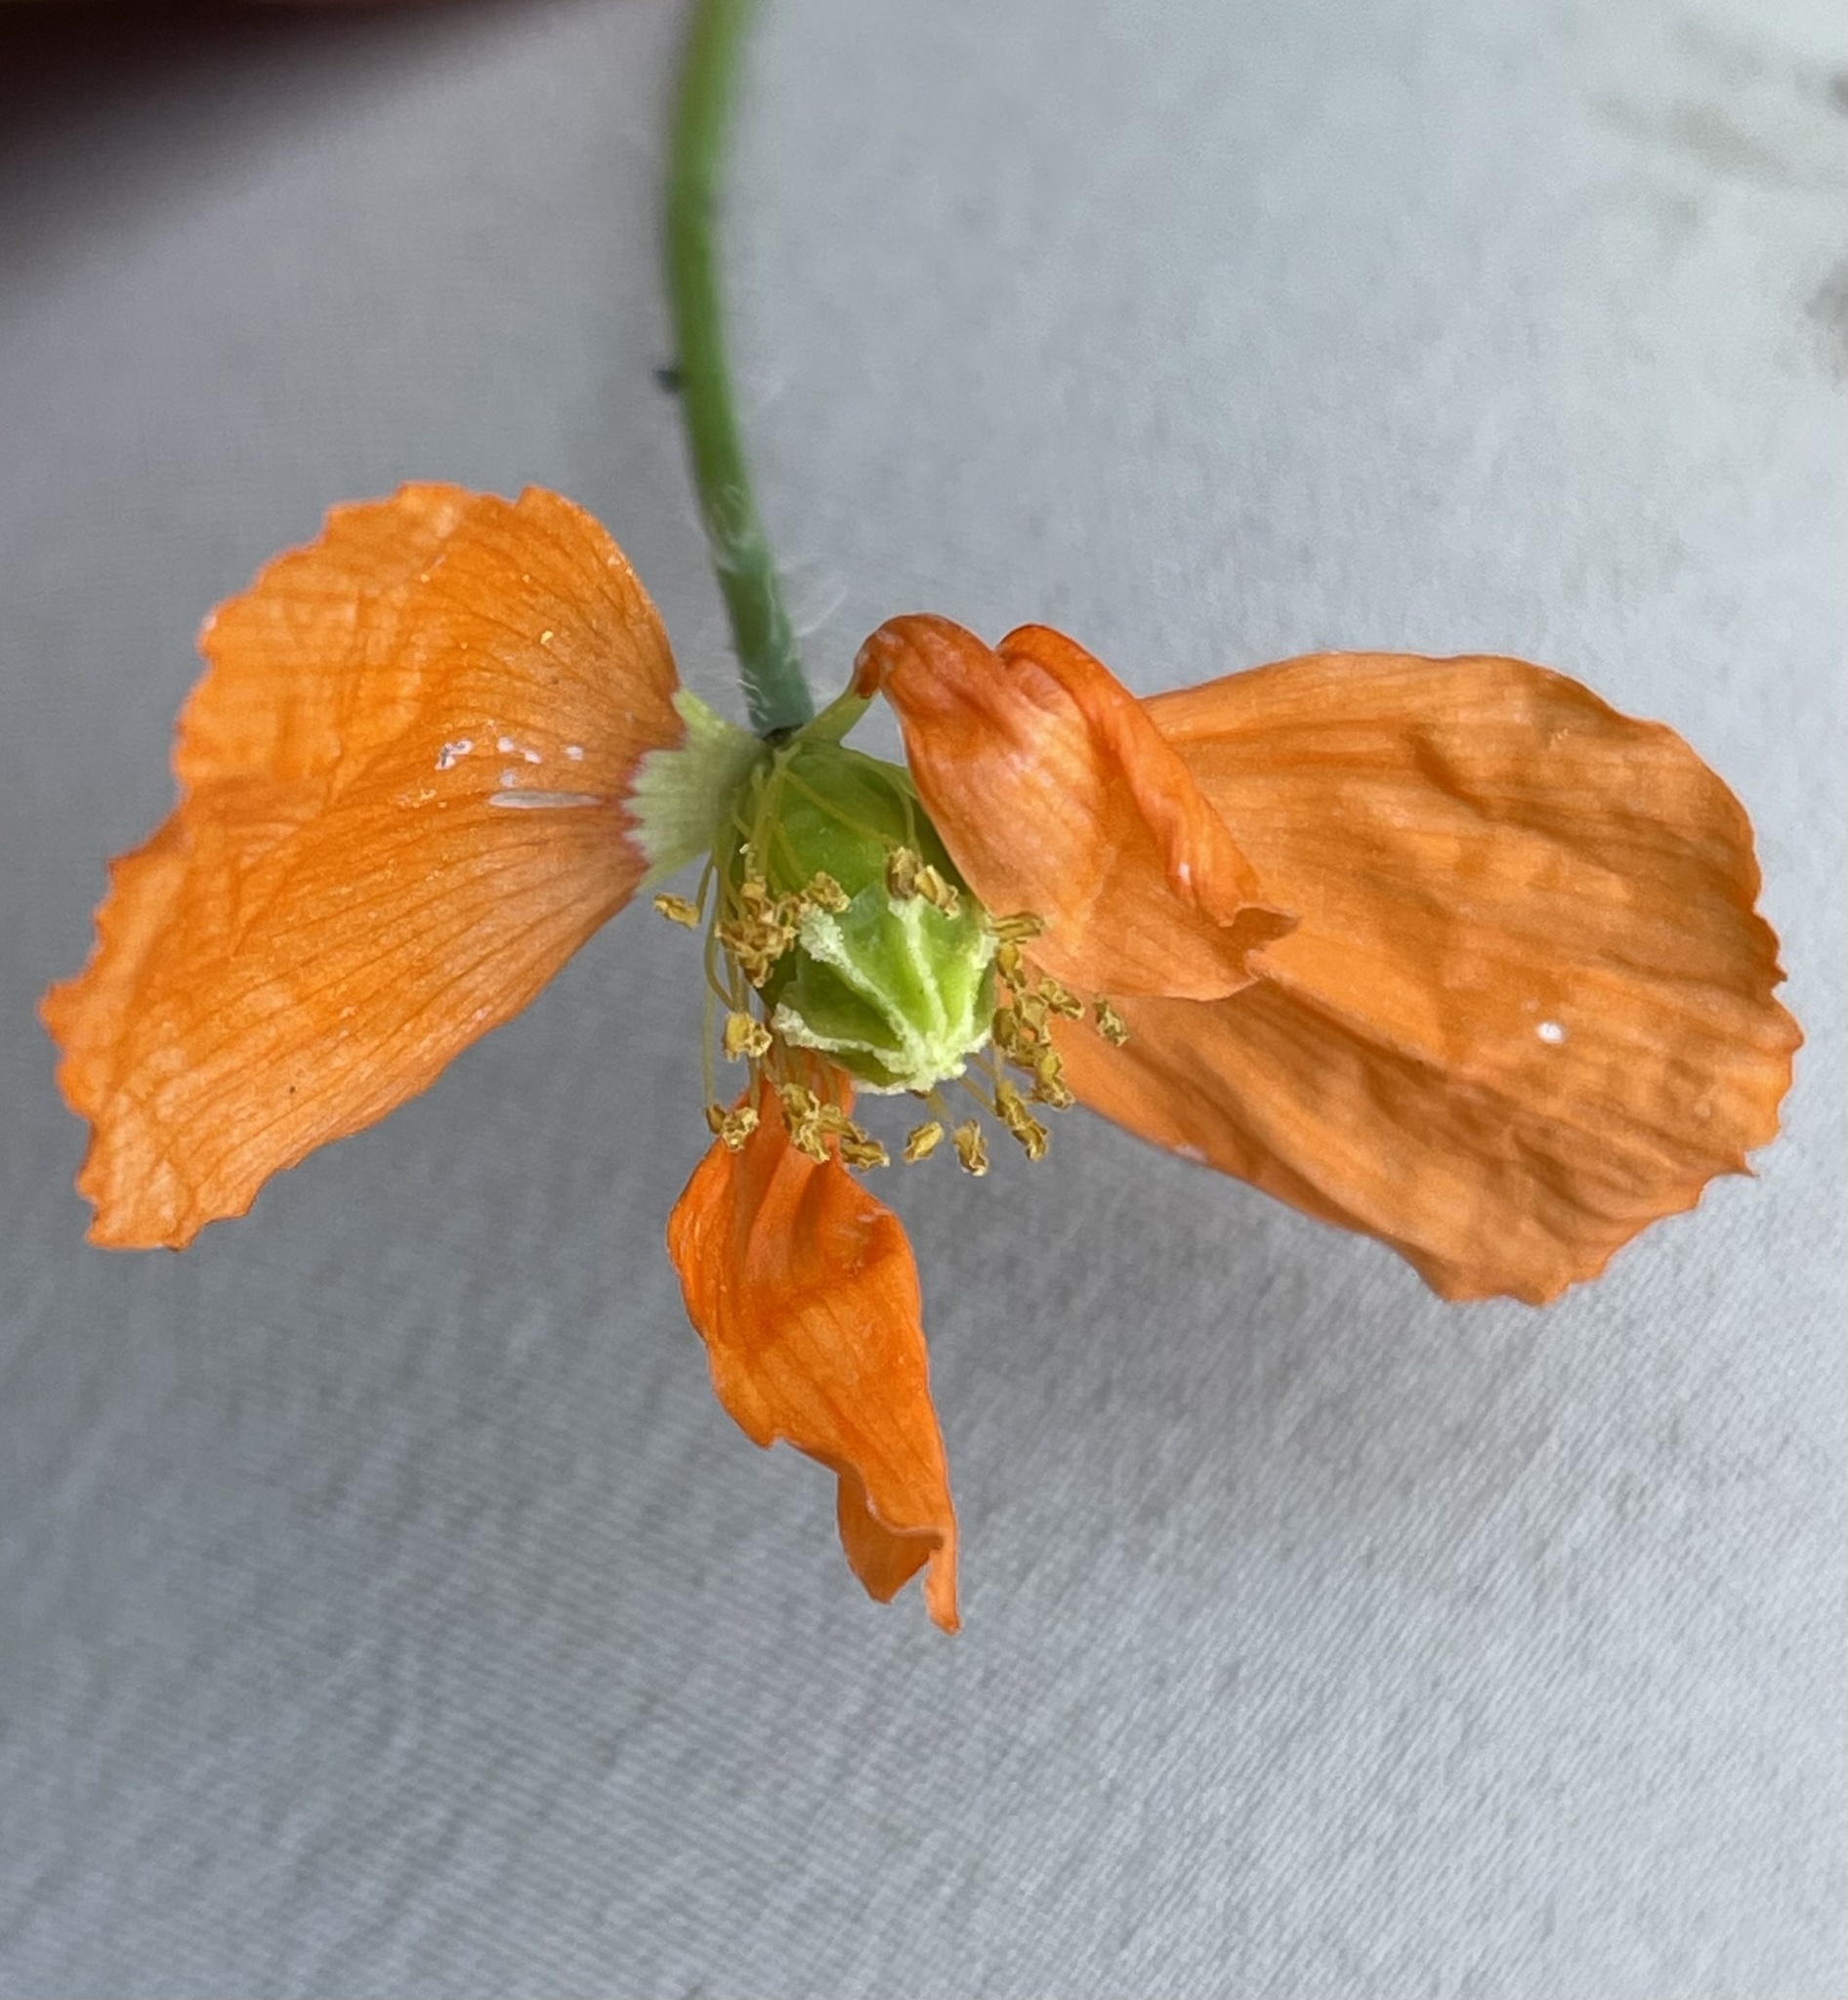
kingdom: Plantae
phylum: Tracheophyta
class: Magnoliopsida
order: Ranunculales
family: Papaveraceae
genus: Papaver
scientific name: Papaver californicum
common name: Fire poppy
